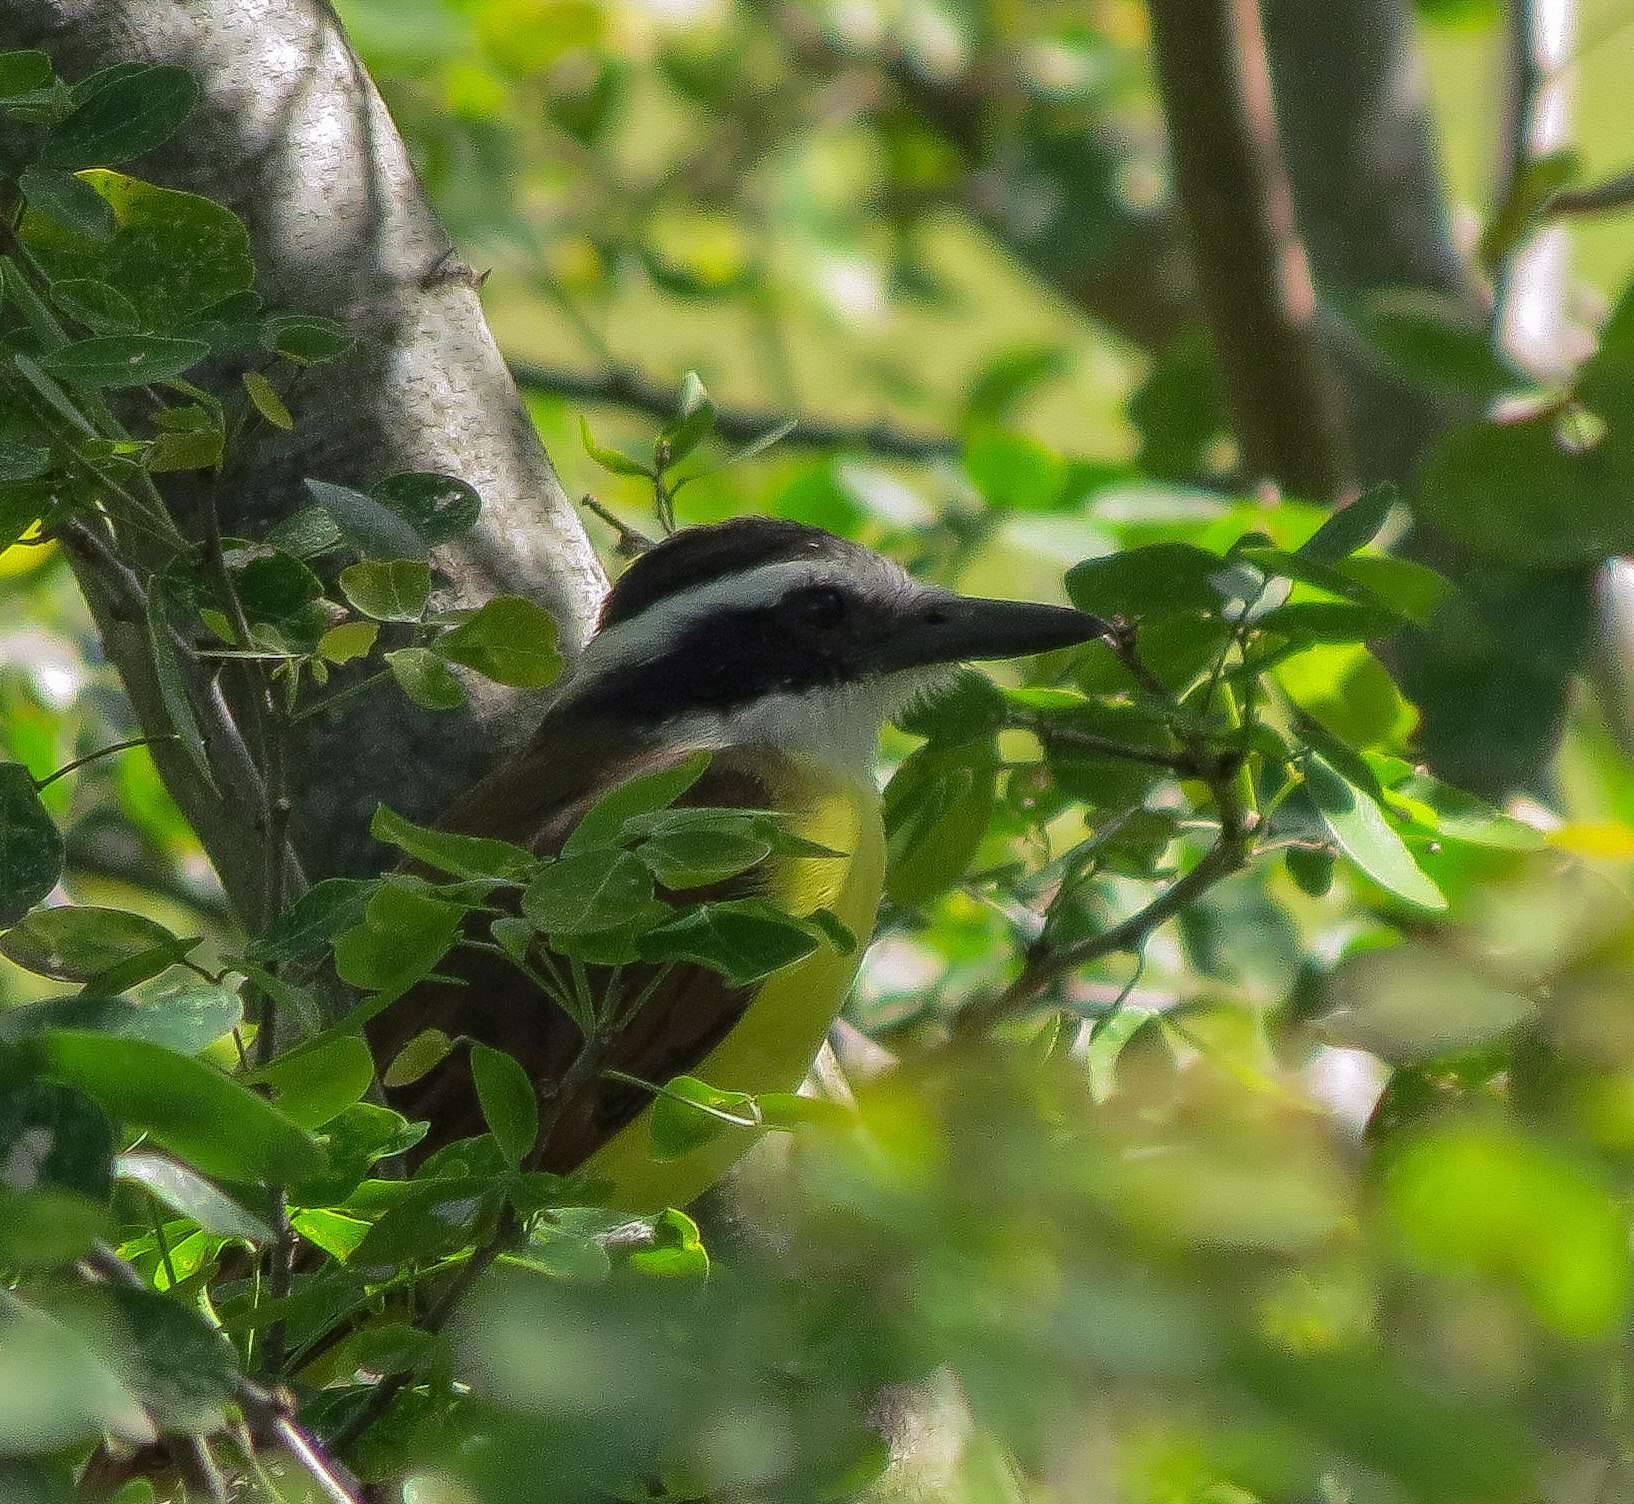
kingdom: Animalia
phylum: Chordata
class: Aves
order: Passeriformes
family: Tyrannidae
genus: Pitangus
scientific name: Pitangus sulphuratus
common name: Great kiskadee
